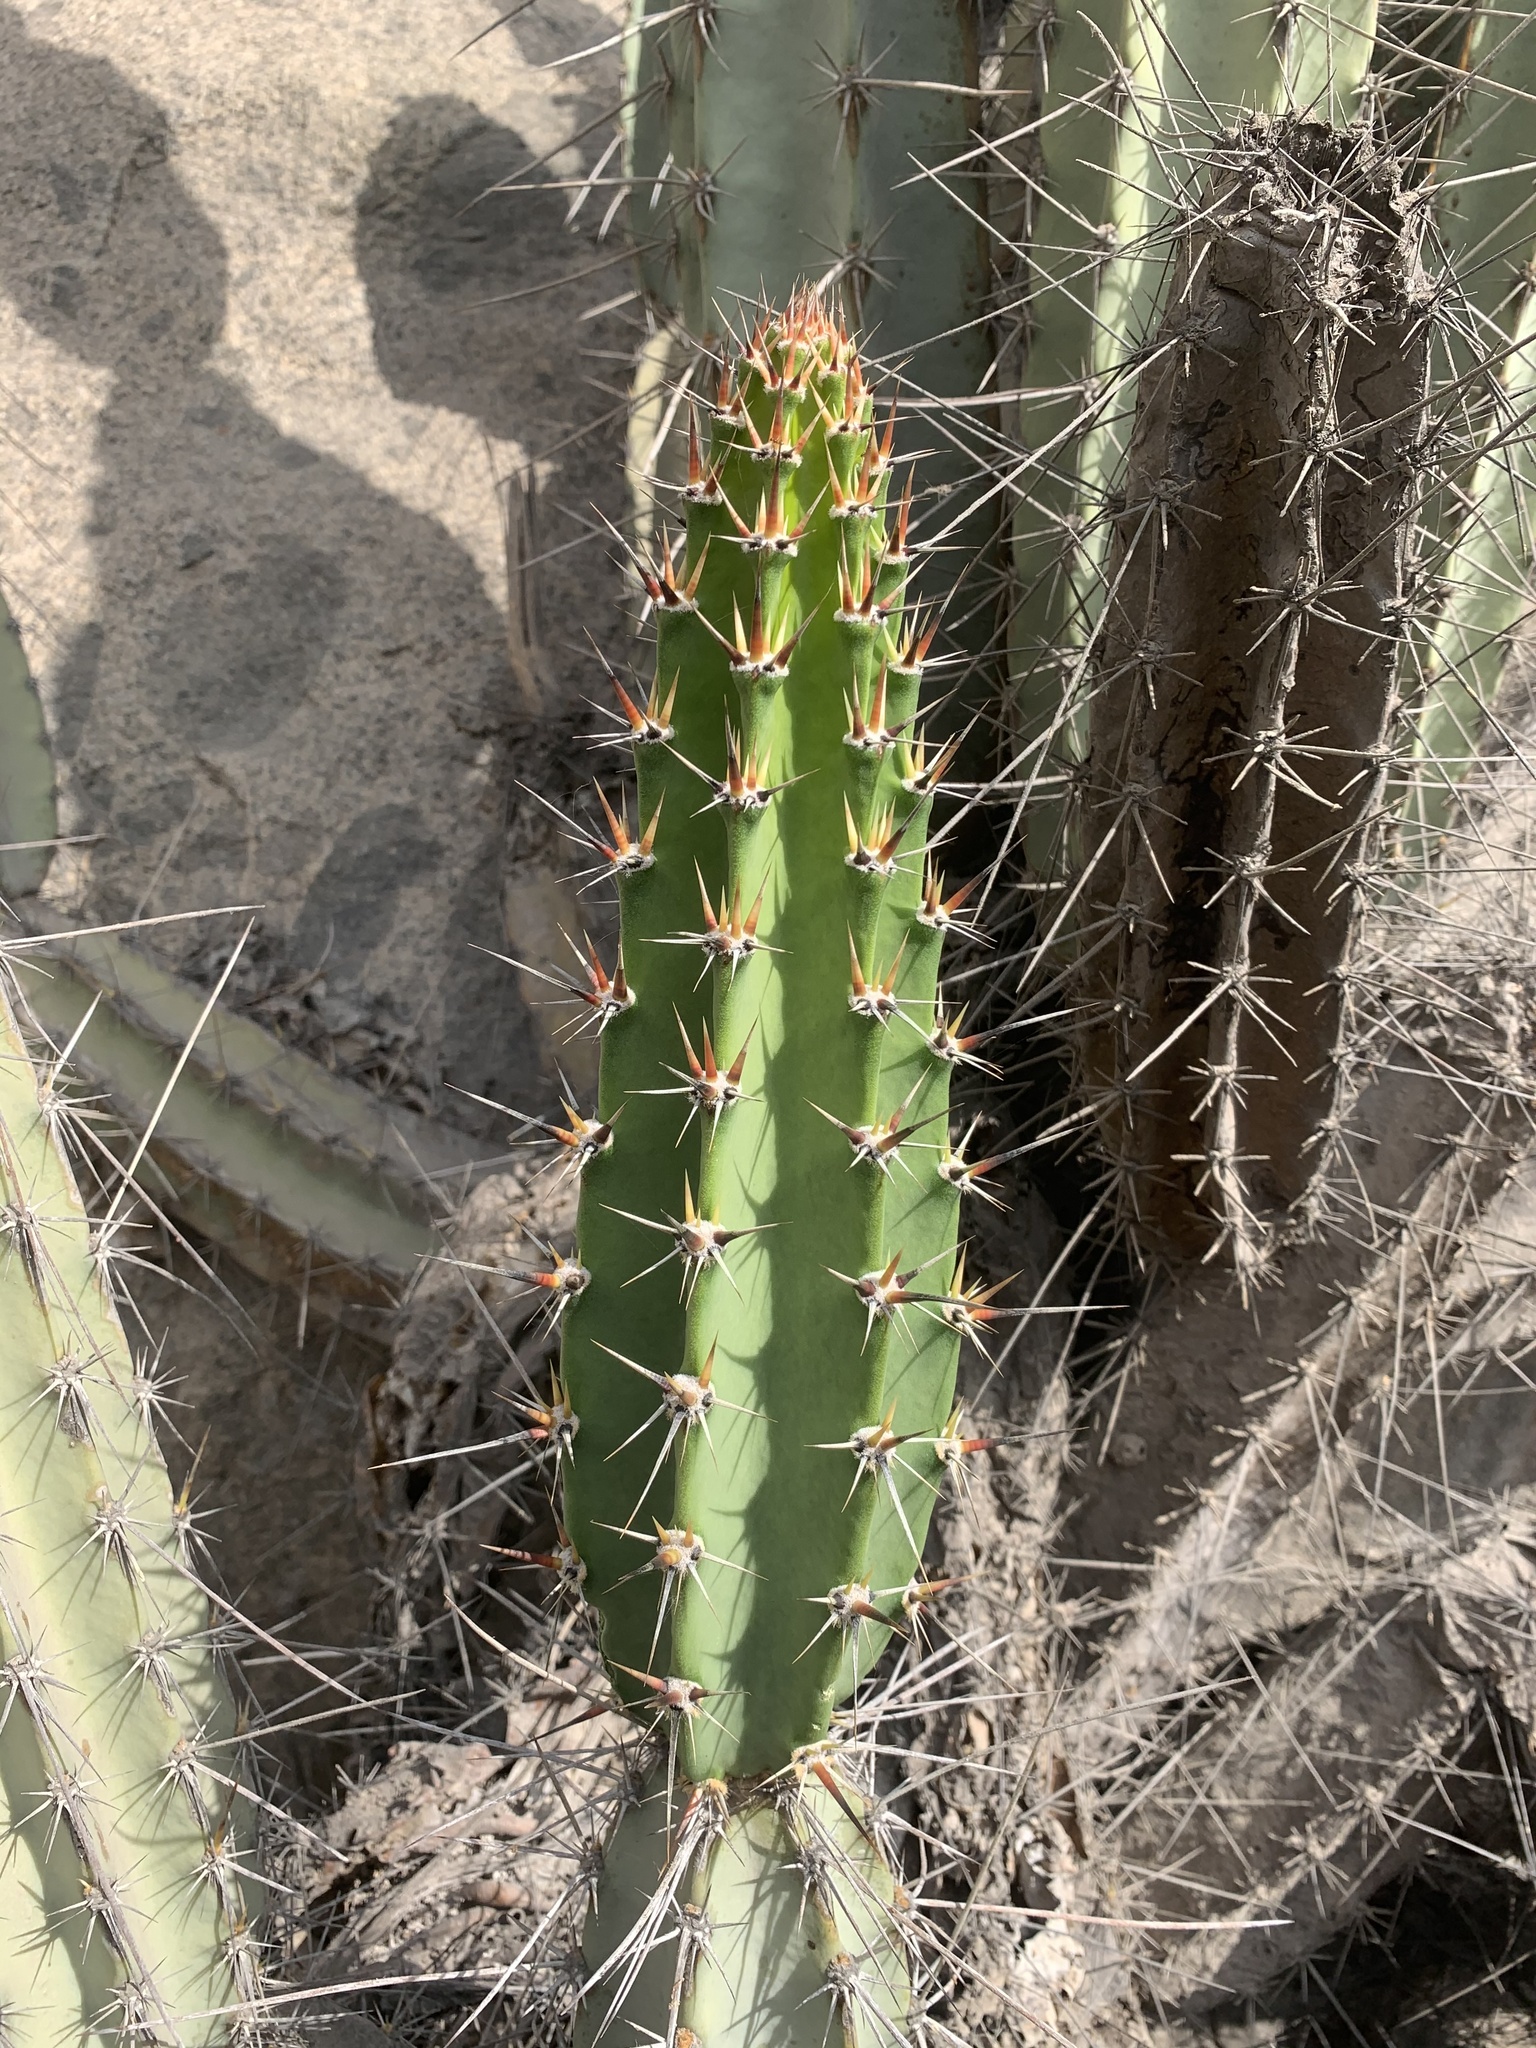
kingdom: Plantae
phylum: Tracheophyta
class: Magnoliopsida
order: Caryophyllales
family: Cactaceae
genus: Armatocereus
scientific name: Armatocereus matucanensis
